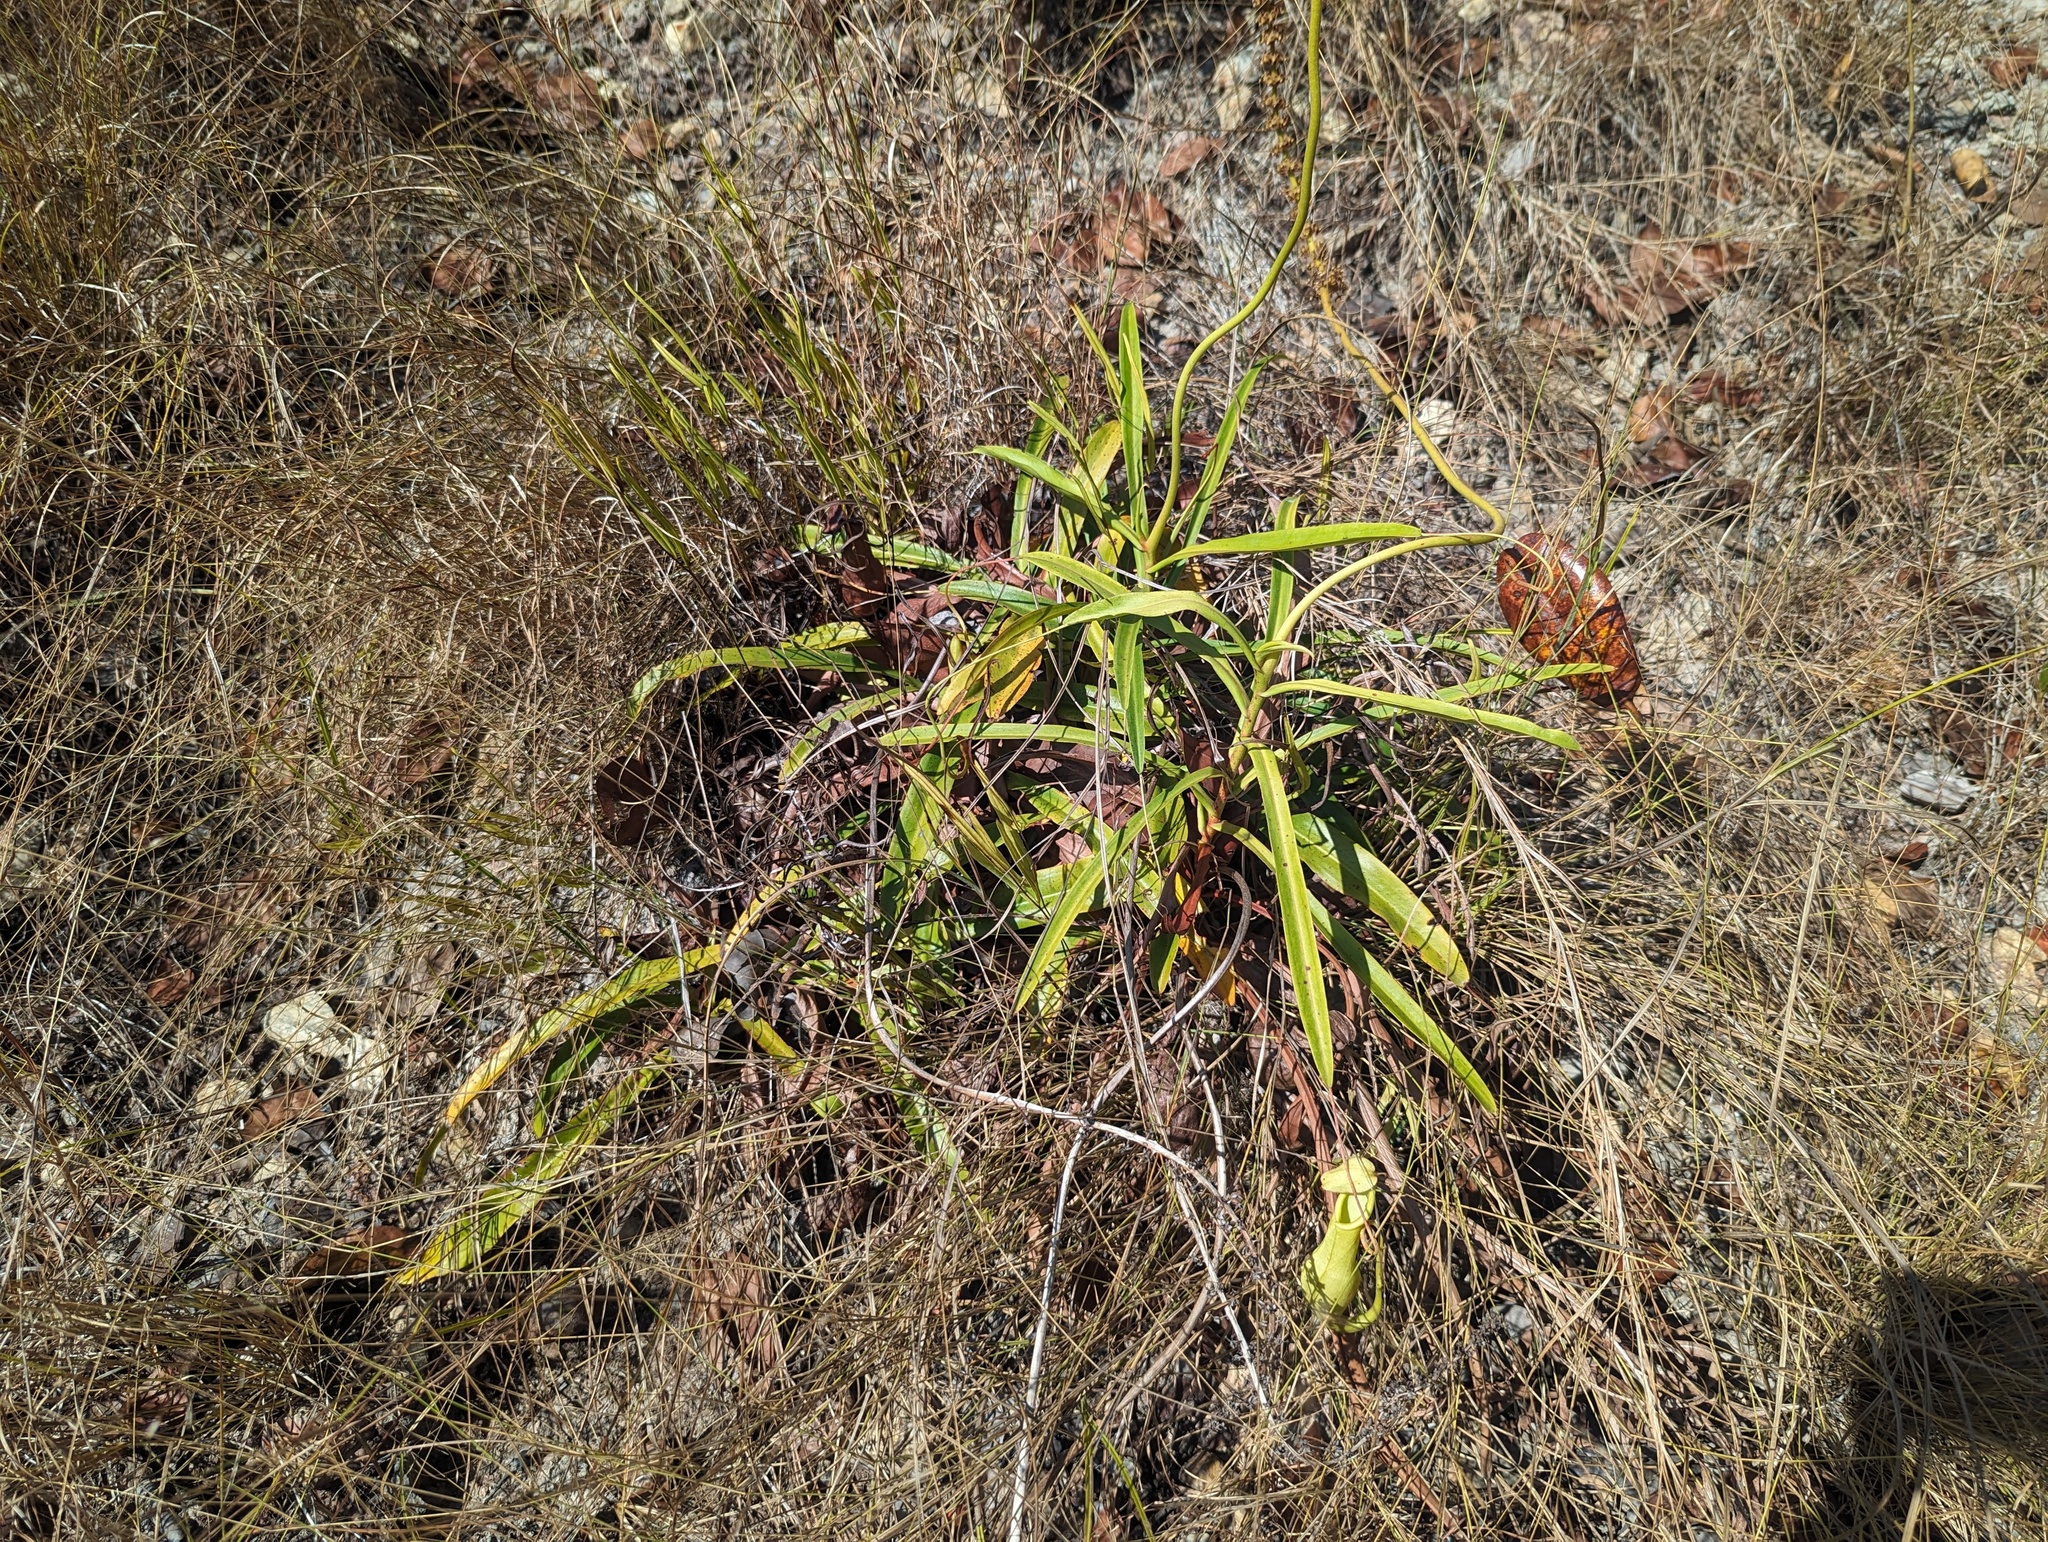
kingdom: Plantae
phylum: Tracheophyta
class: Magnoliopsida
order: Caryophyllales
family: Nepenthaceae
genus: Nepenthes
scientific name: Nepenthes abalata
